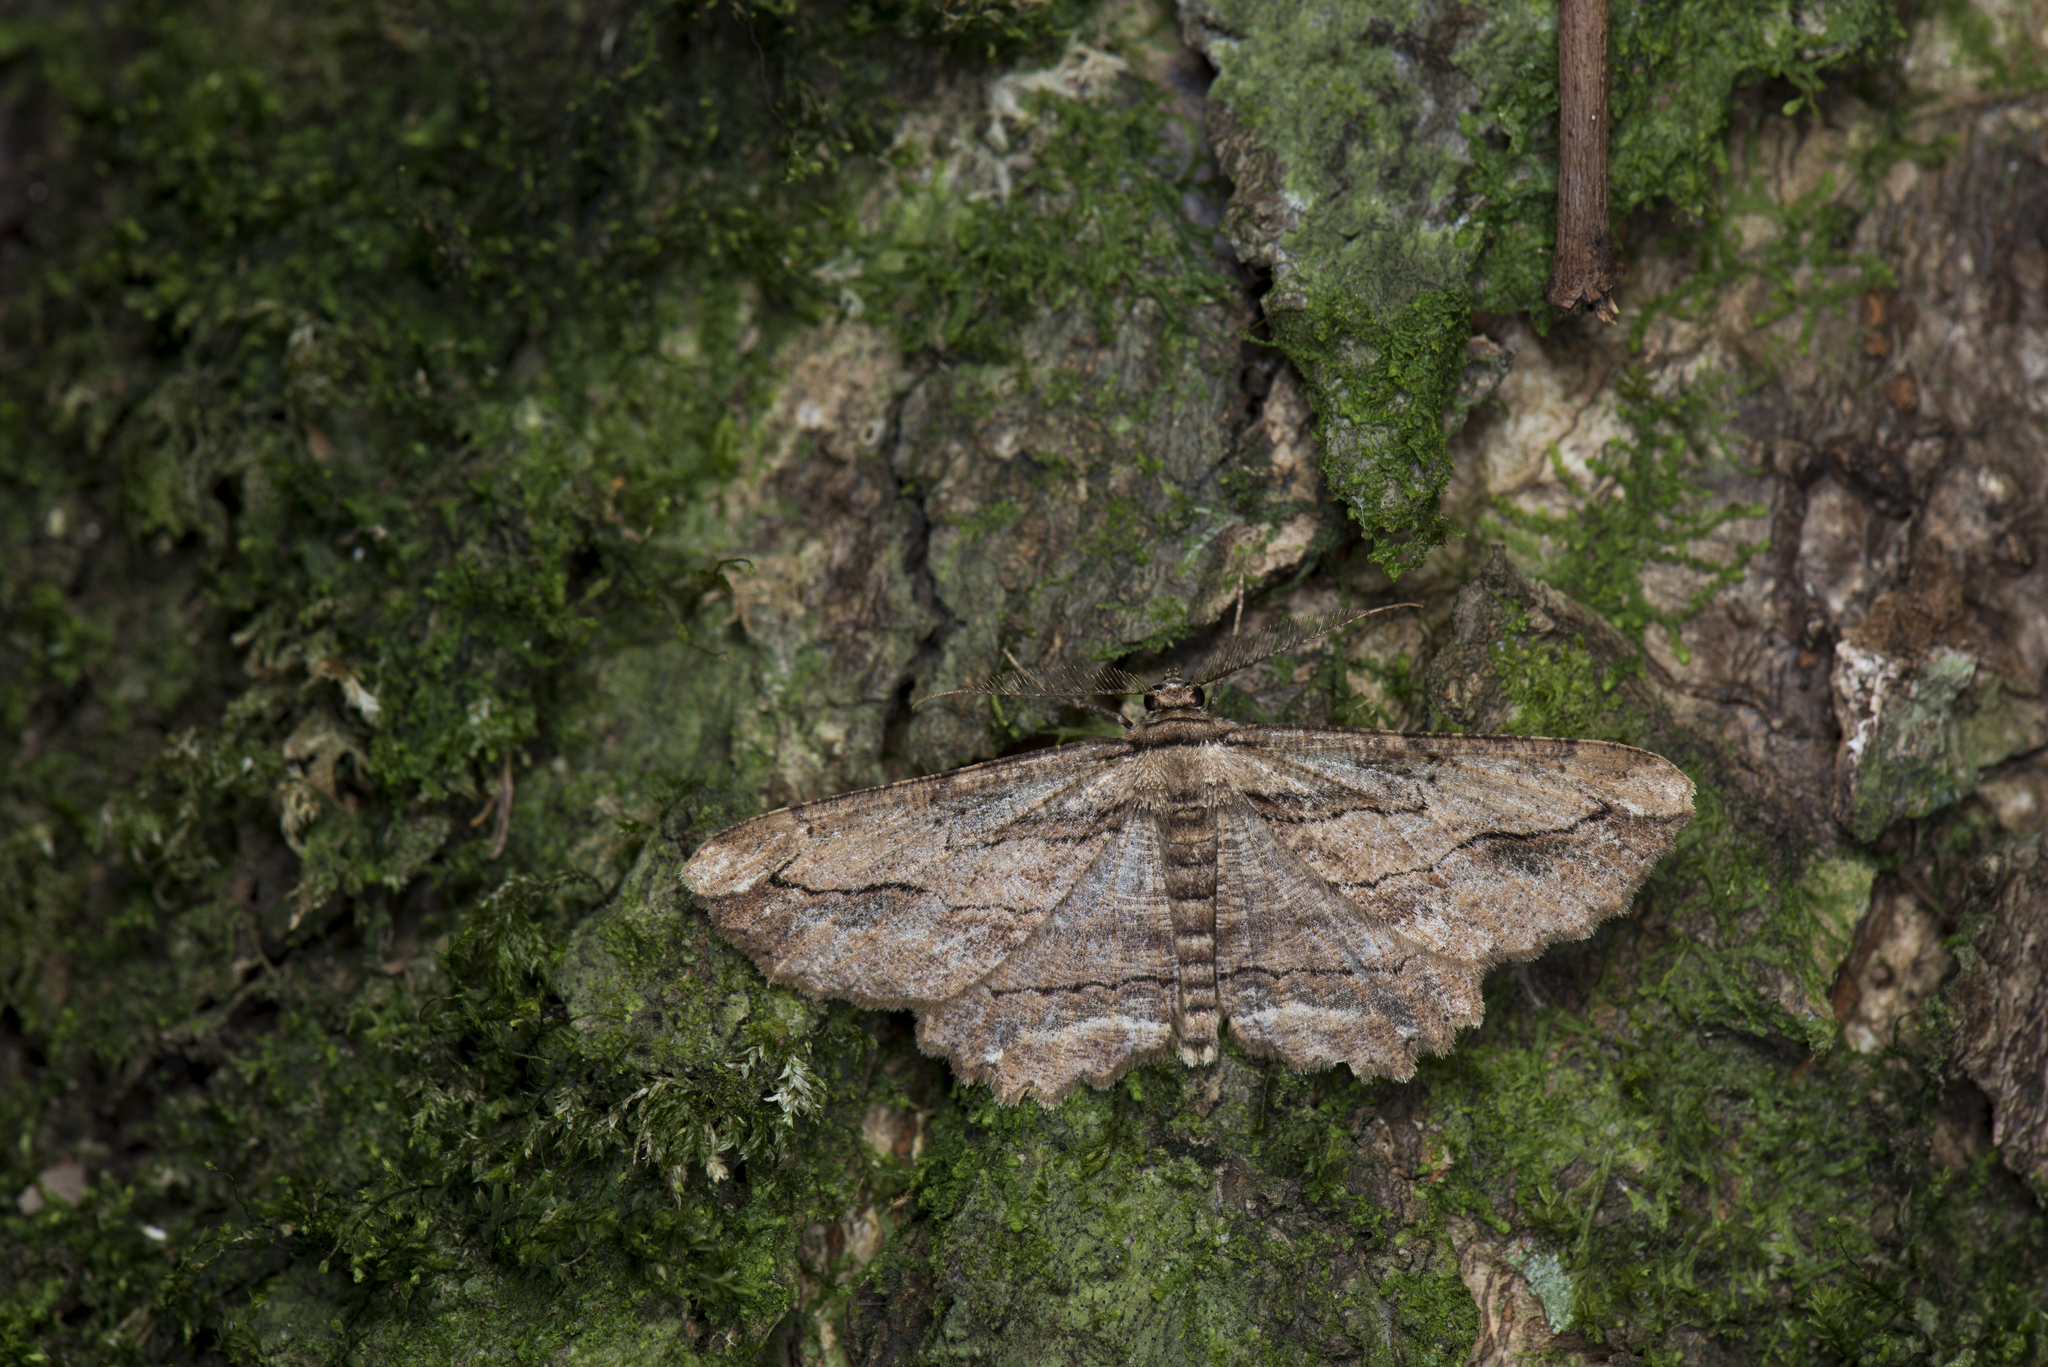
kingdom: Animalia
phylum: Arthropoda
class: Insecta
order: Lepidoptera
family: Geometridae
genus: Menophra
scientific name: Menophra nakajimai
